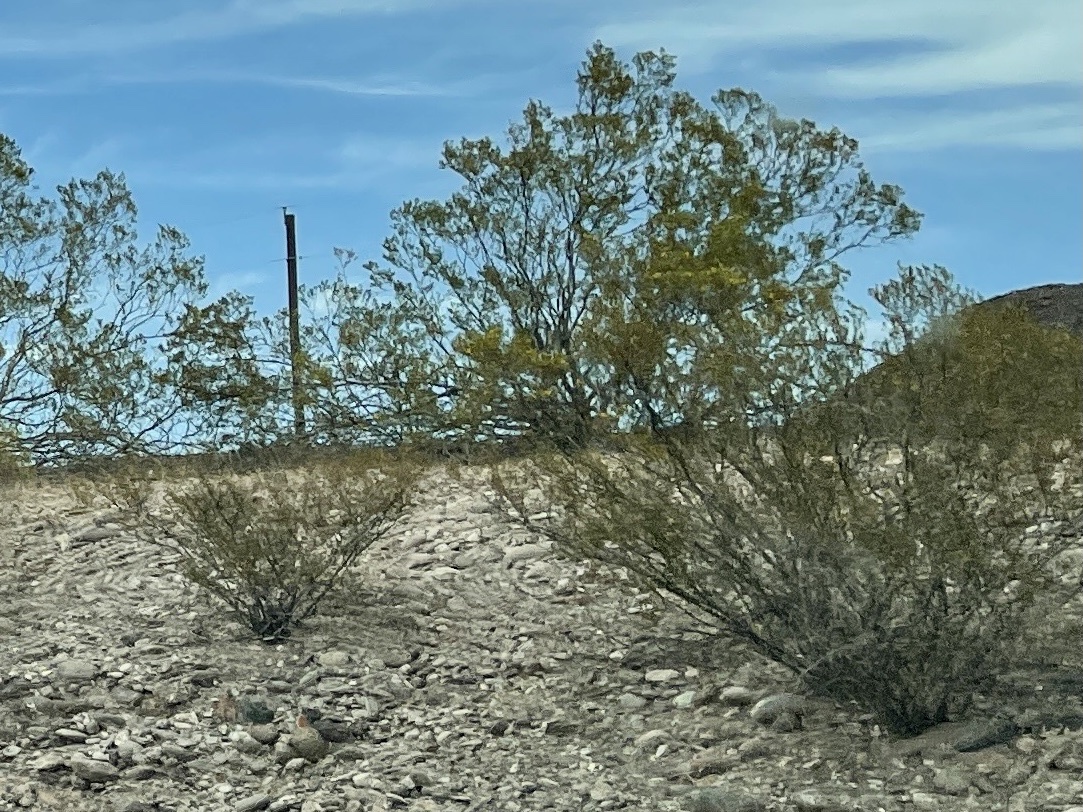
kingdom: Plantae
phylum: Tracheophyta
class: Magnoliopsida
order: Zygophyllales
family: Zygophyllaceae
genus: Larrea
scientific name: Larrea tridentata
